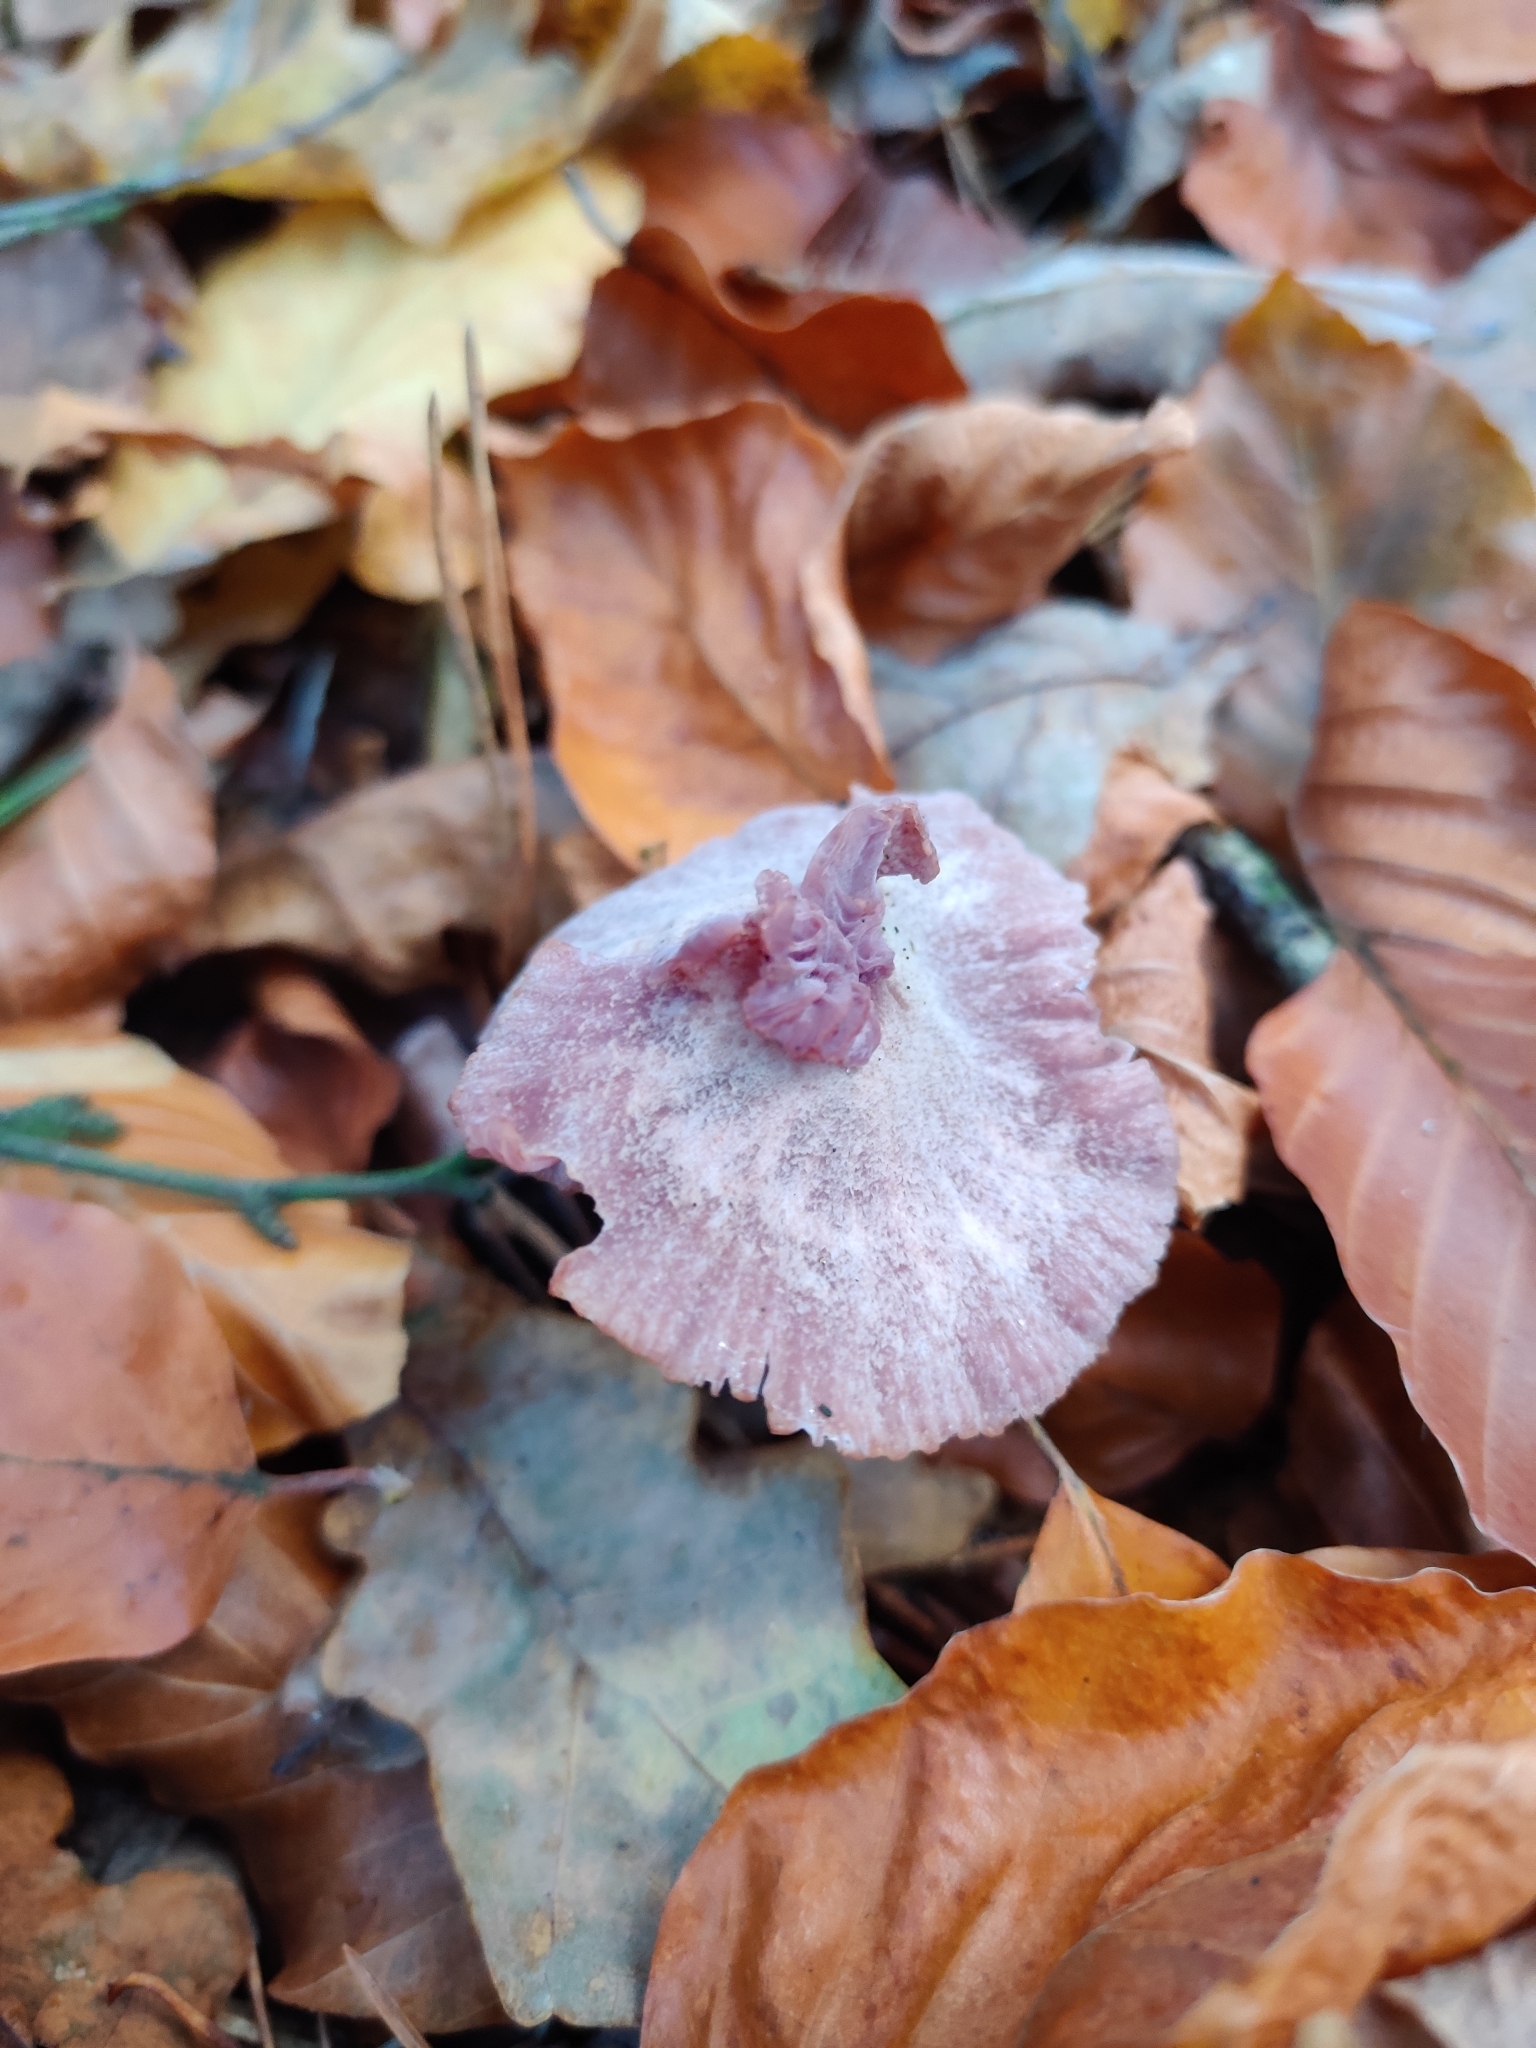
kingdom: Fungi
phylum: Basidiomycota
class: Agaricomycetes
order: Agaricales
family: Hydnangiaceae
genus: Laccaria
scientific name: Laccaria amethystina
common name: Amethyst deceiver
